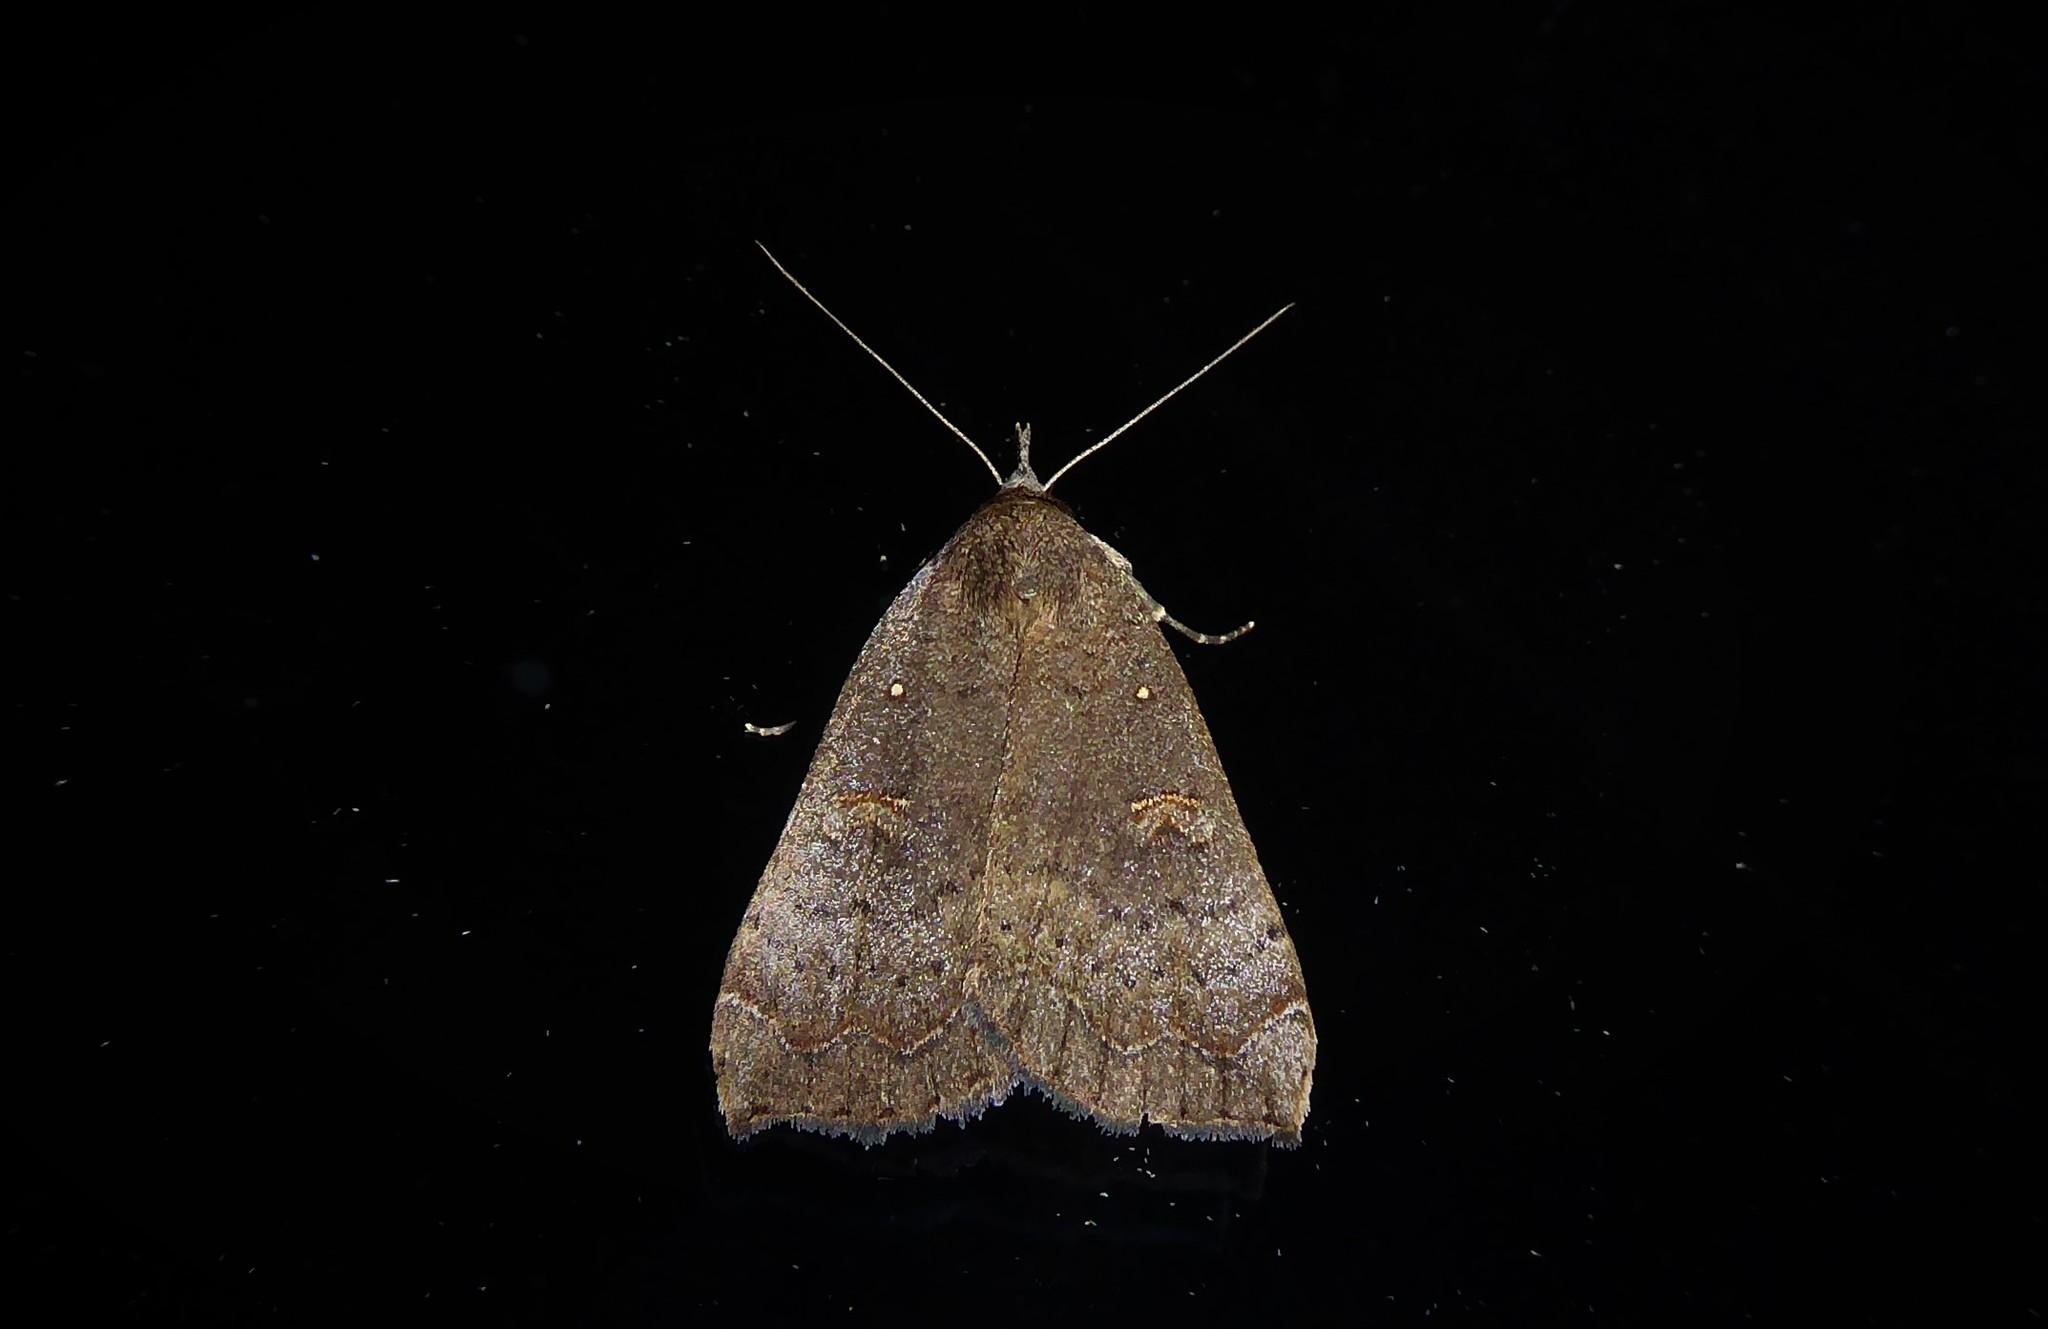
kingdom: Animalia
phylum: Arthropoda
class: Insecta
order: Lepidoptera
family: Erebidae
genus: Rhapsa
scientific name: Rhapsa scotosialis
